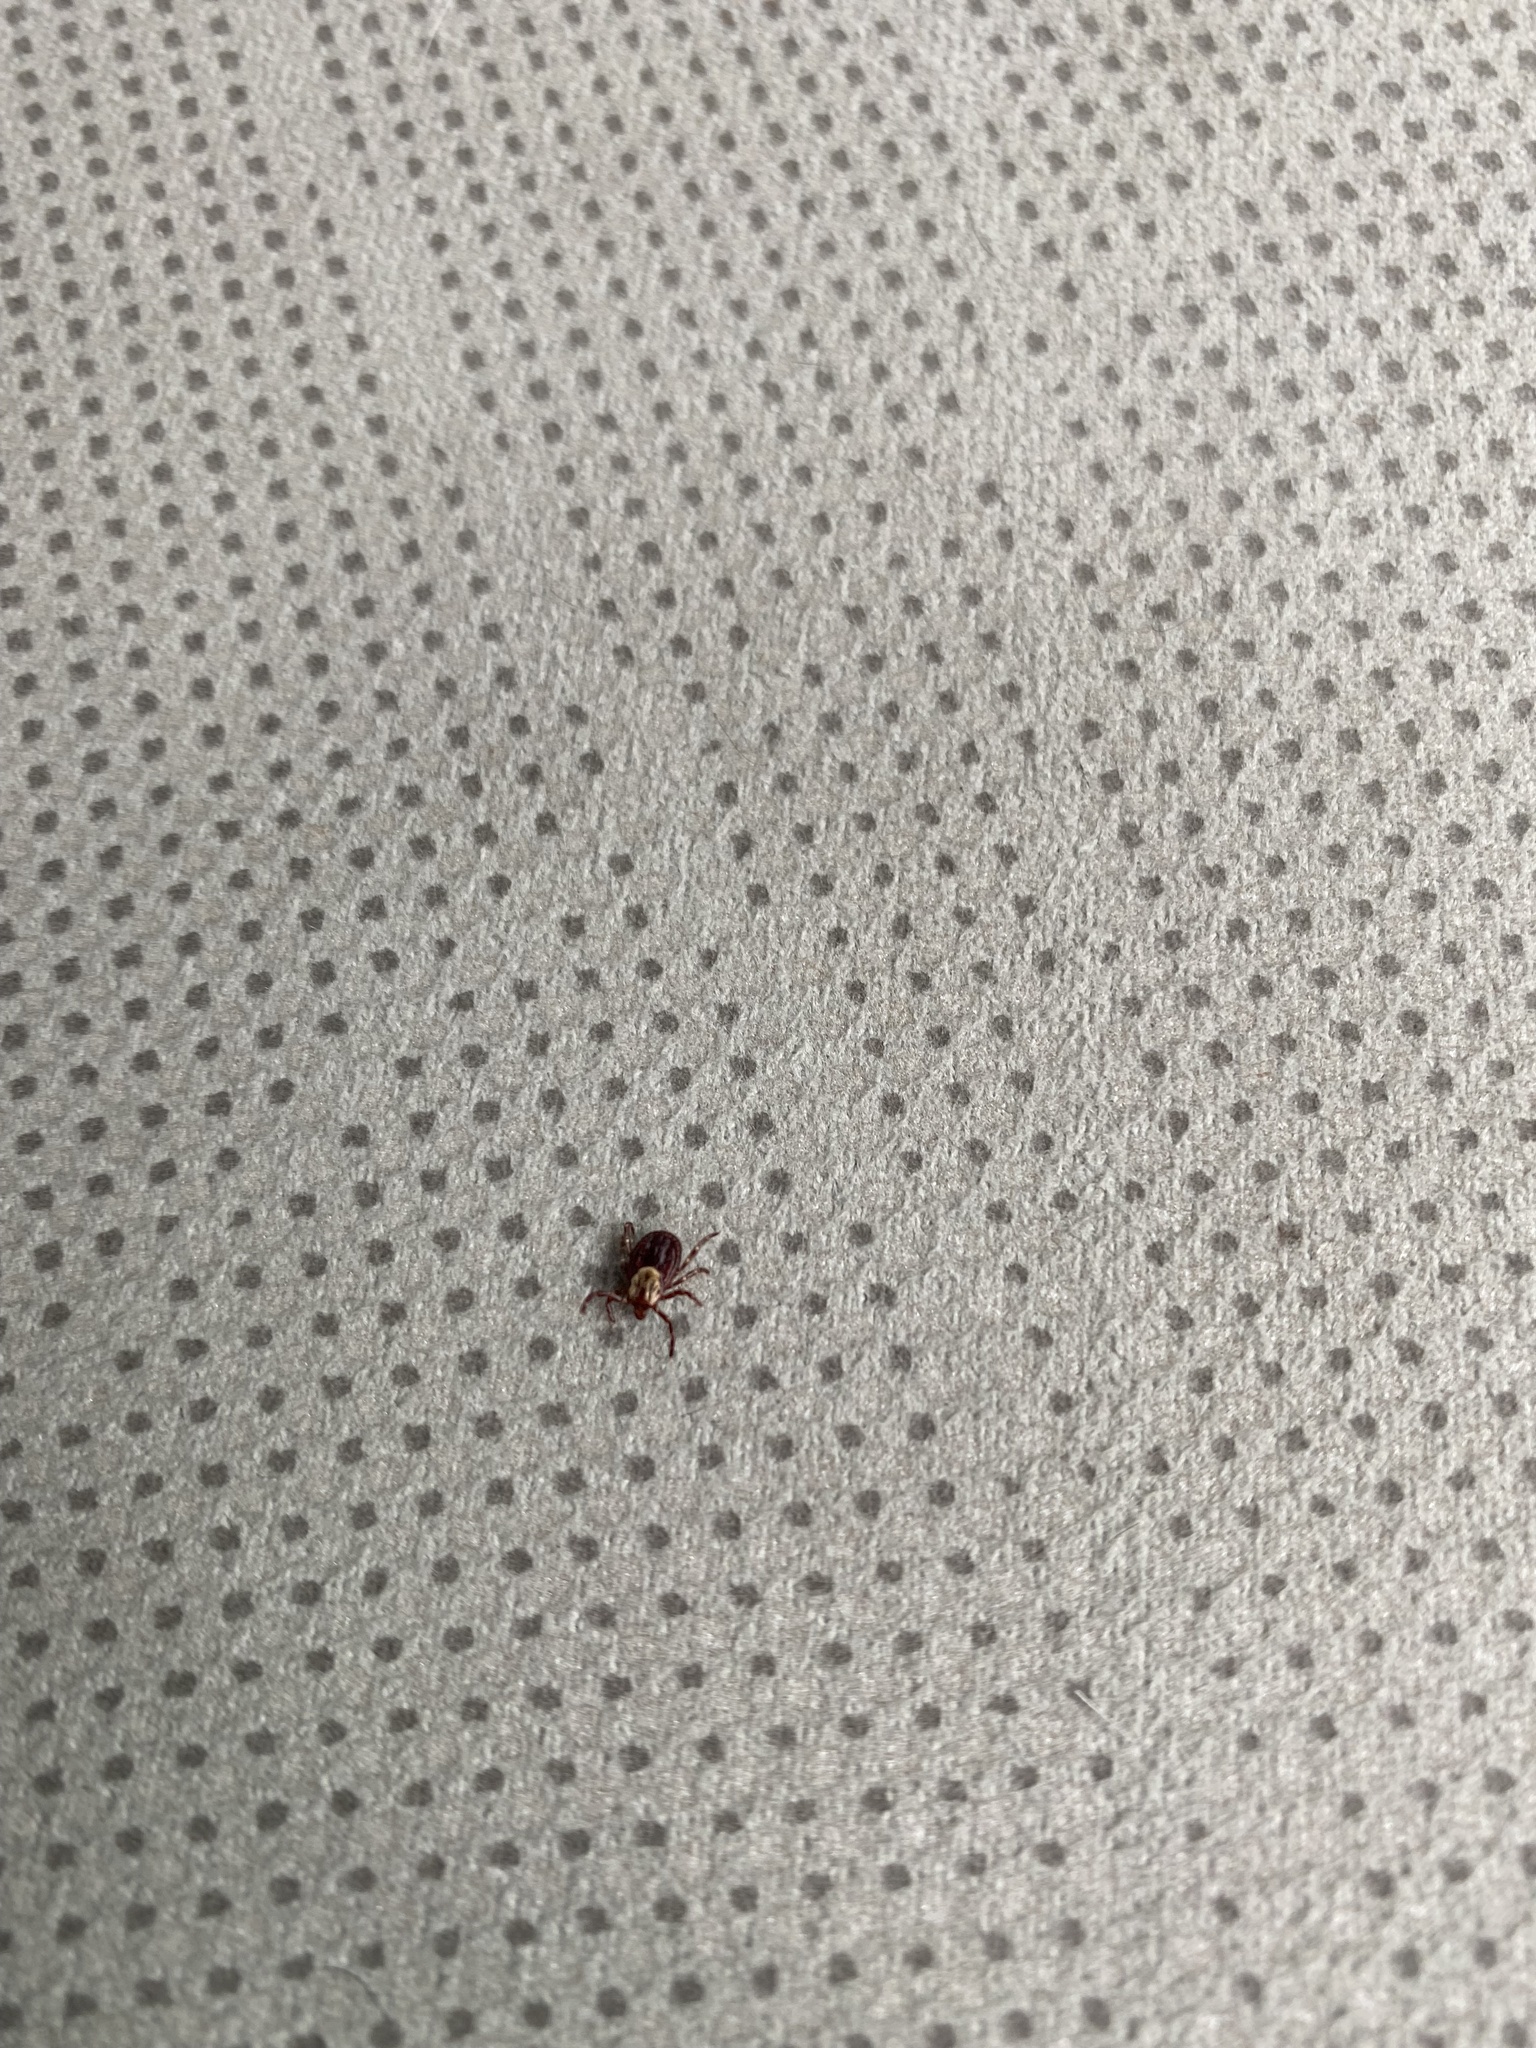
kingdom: Animalia
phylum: Arthropoda
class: Arachnida
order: Ixodida
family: Ixodidae
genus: Dermacentor
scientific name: Dermacentor variabilis
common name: American dog tick
